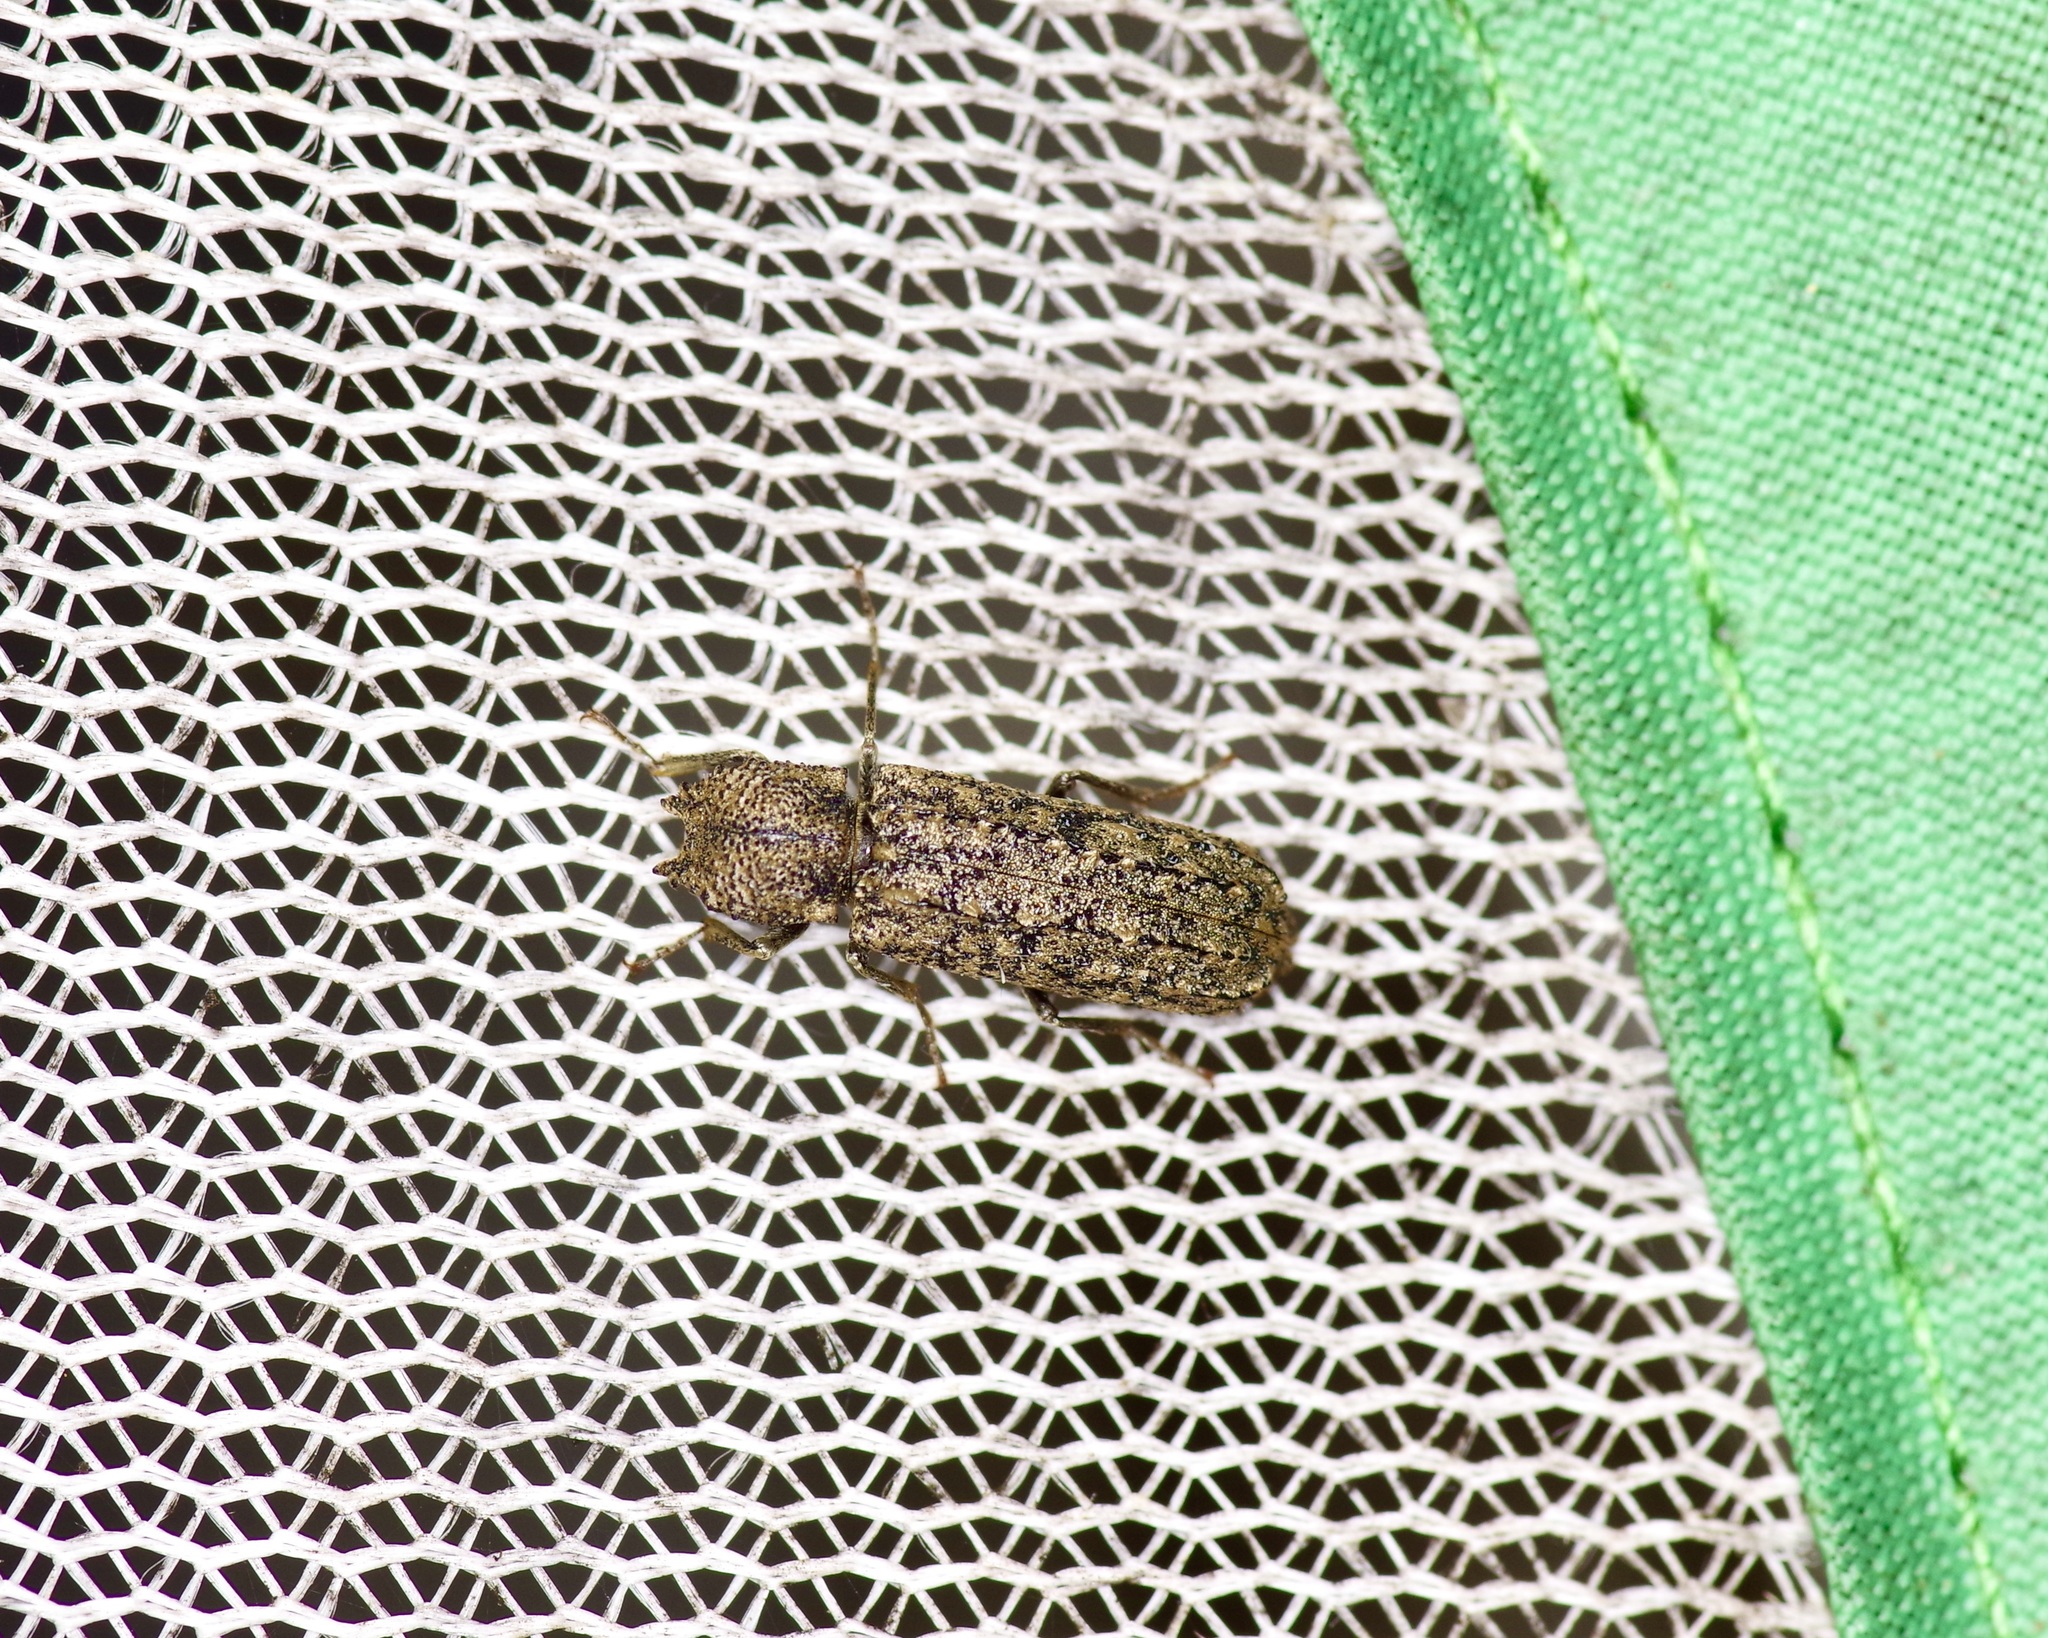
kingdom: Animalia
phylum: Arthropoda
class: Insecta
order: Coleoptera
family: Bostrichidae
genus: Lichenophanes
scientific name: Lichenophanes bicornis
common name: Two-horned powder-post beetle
